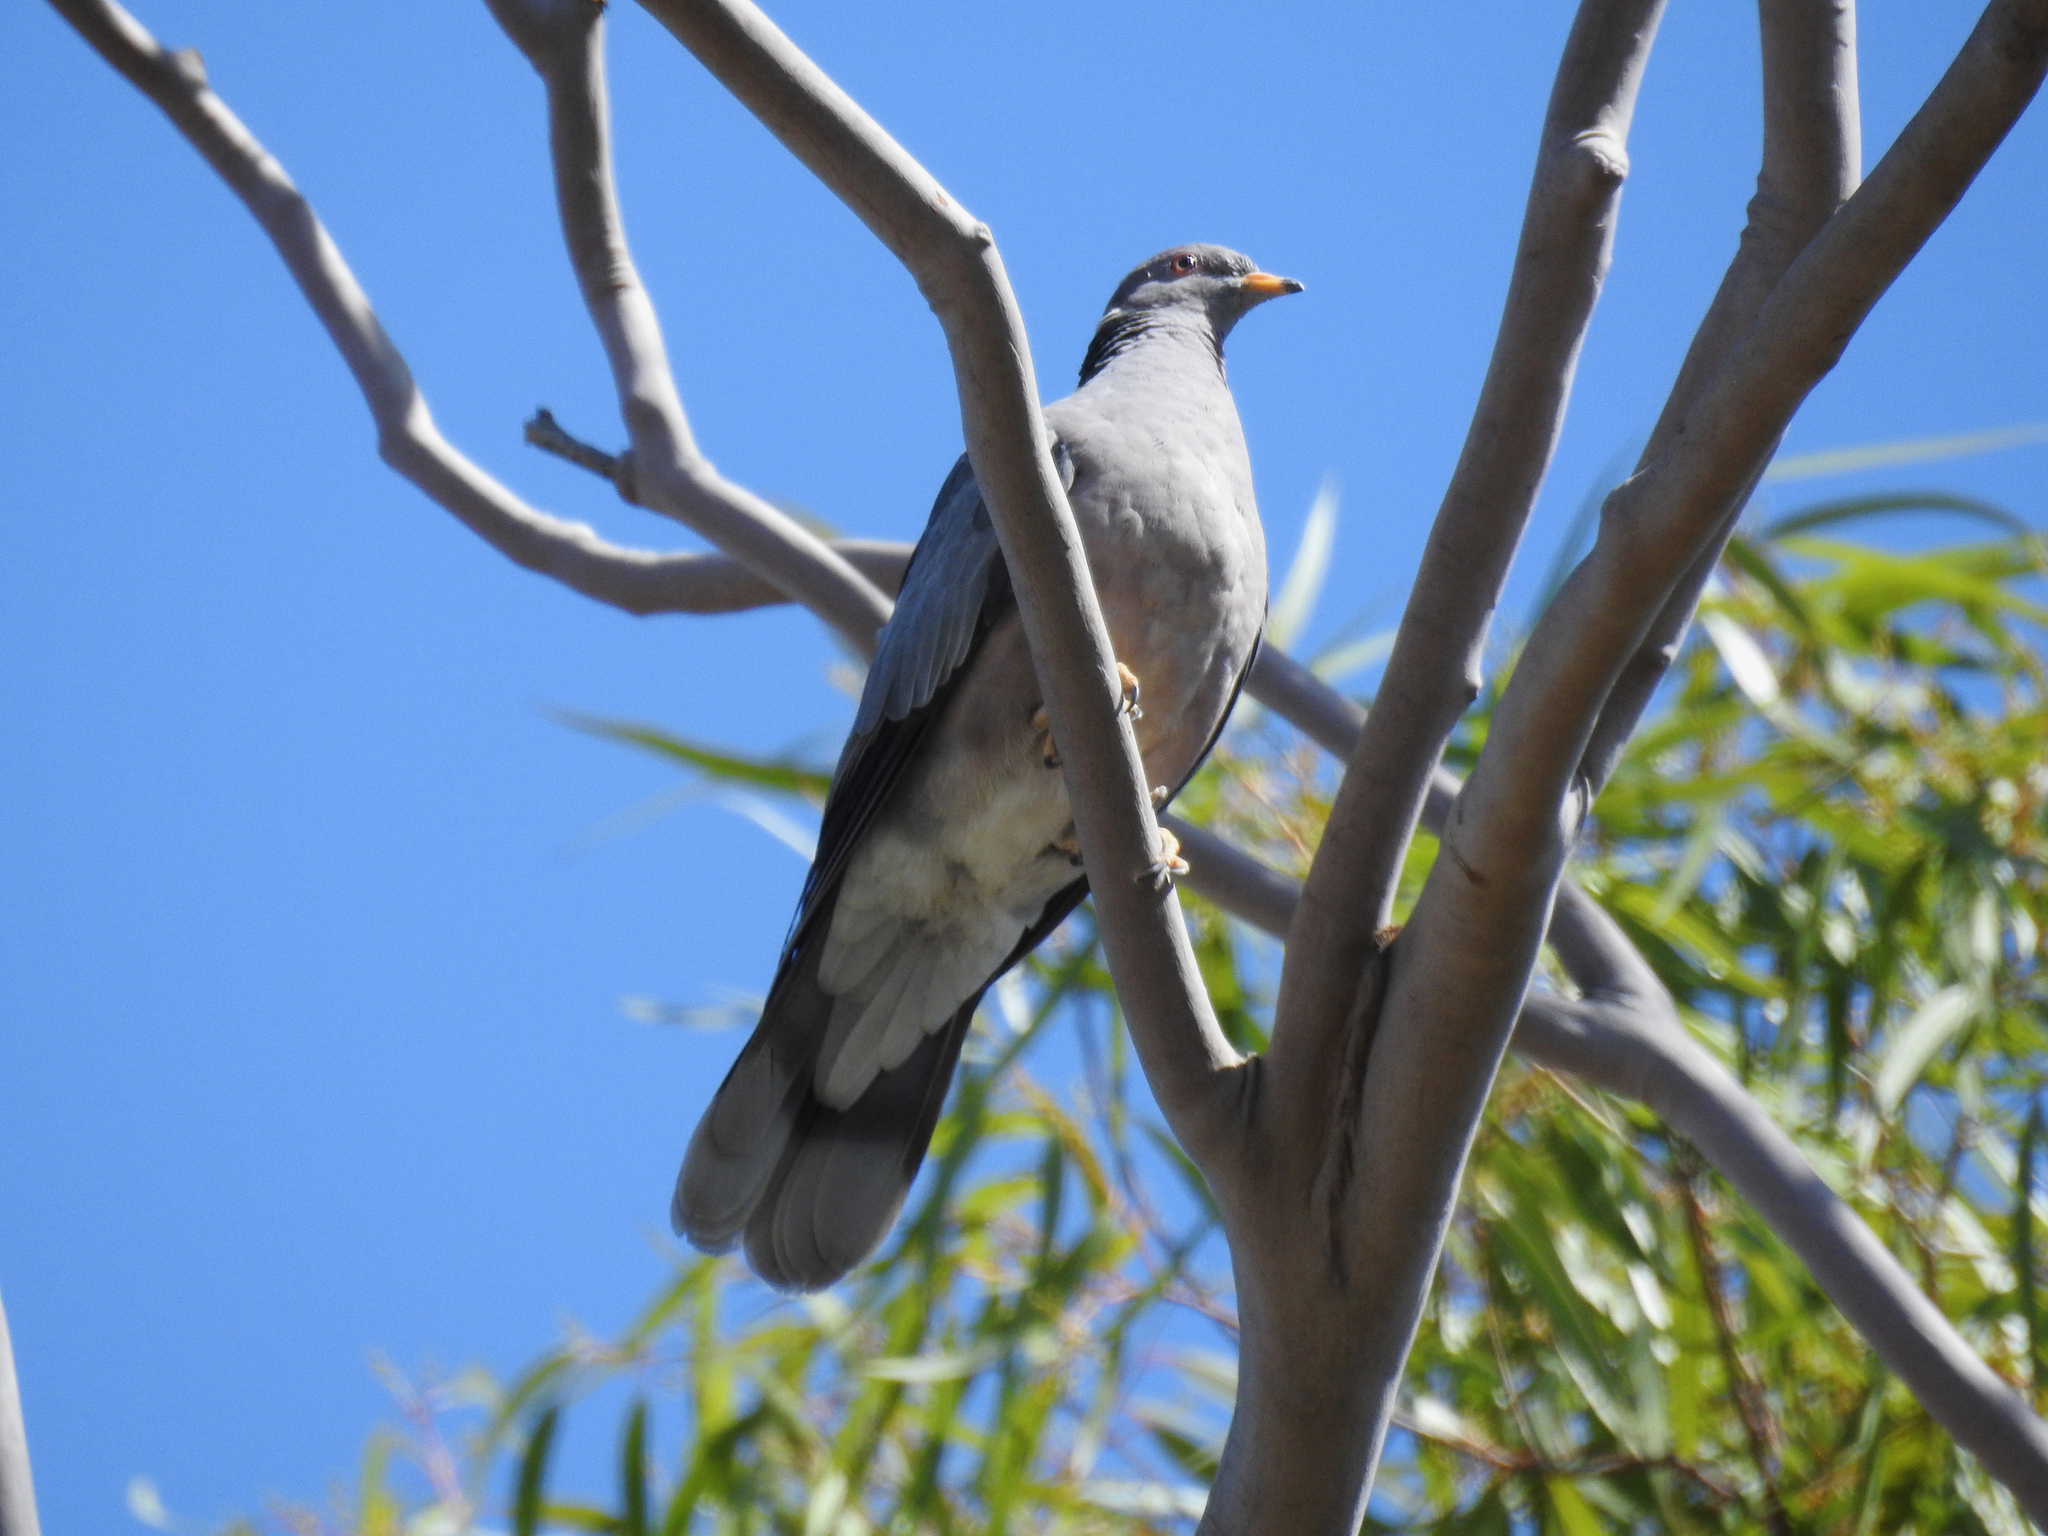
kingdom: Animalia
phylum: Chordata
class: Aves
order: Columbiformes
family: Columbidae
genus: Patagioenas
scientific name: Patagioenas fasciata
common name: Band-tailed pigeon
